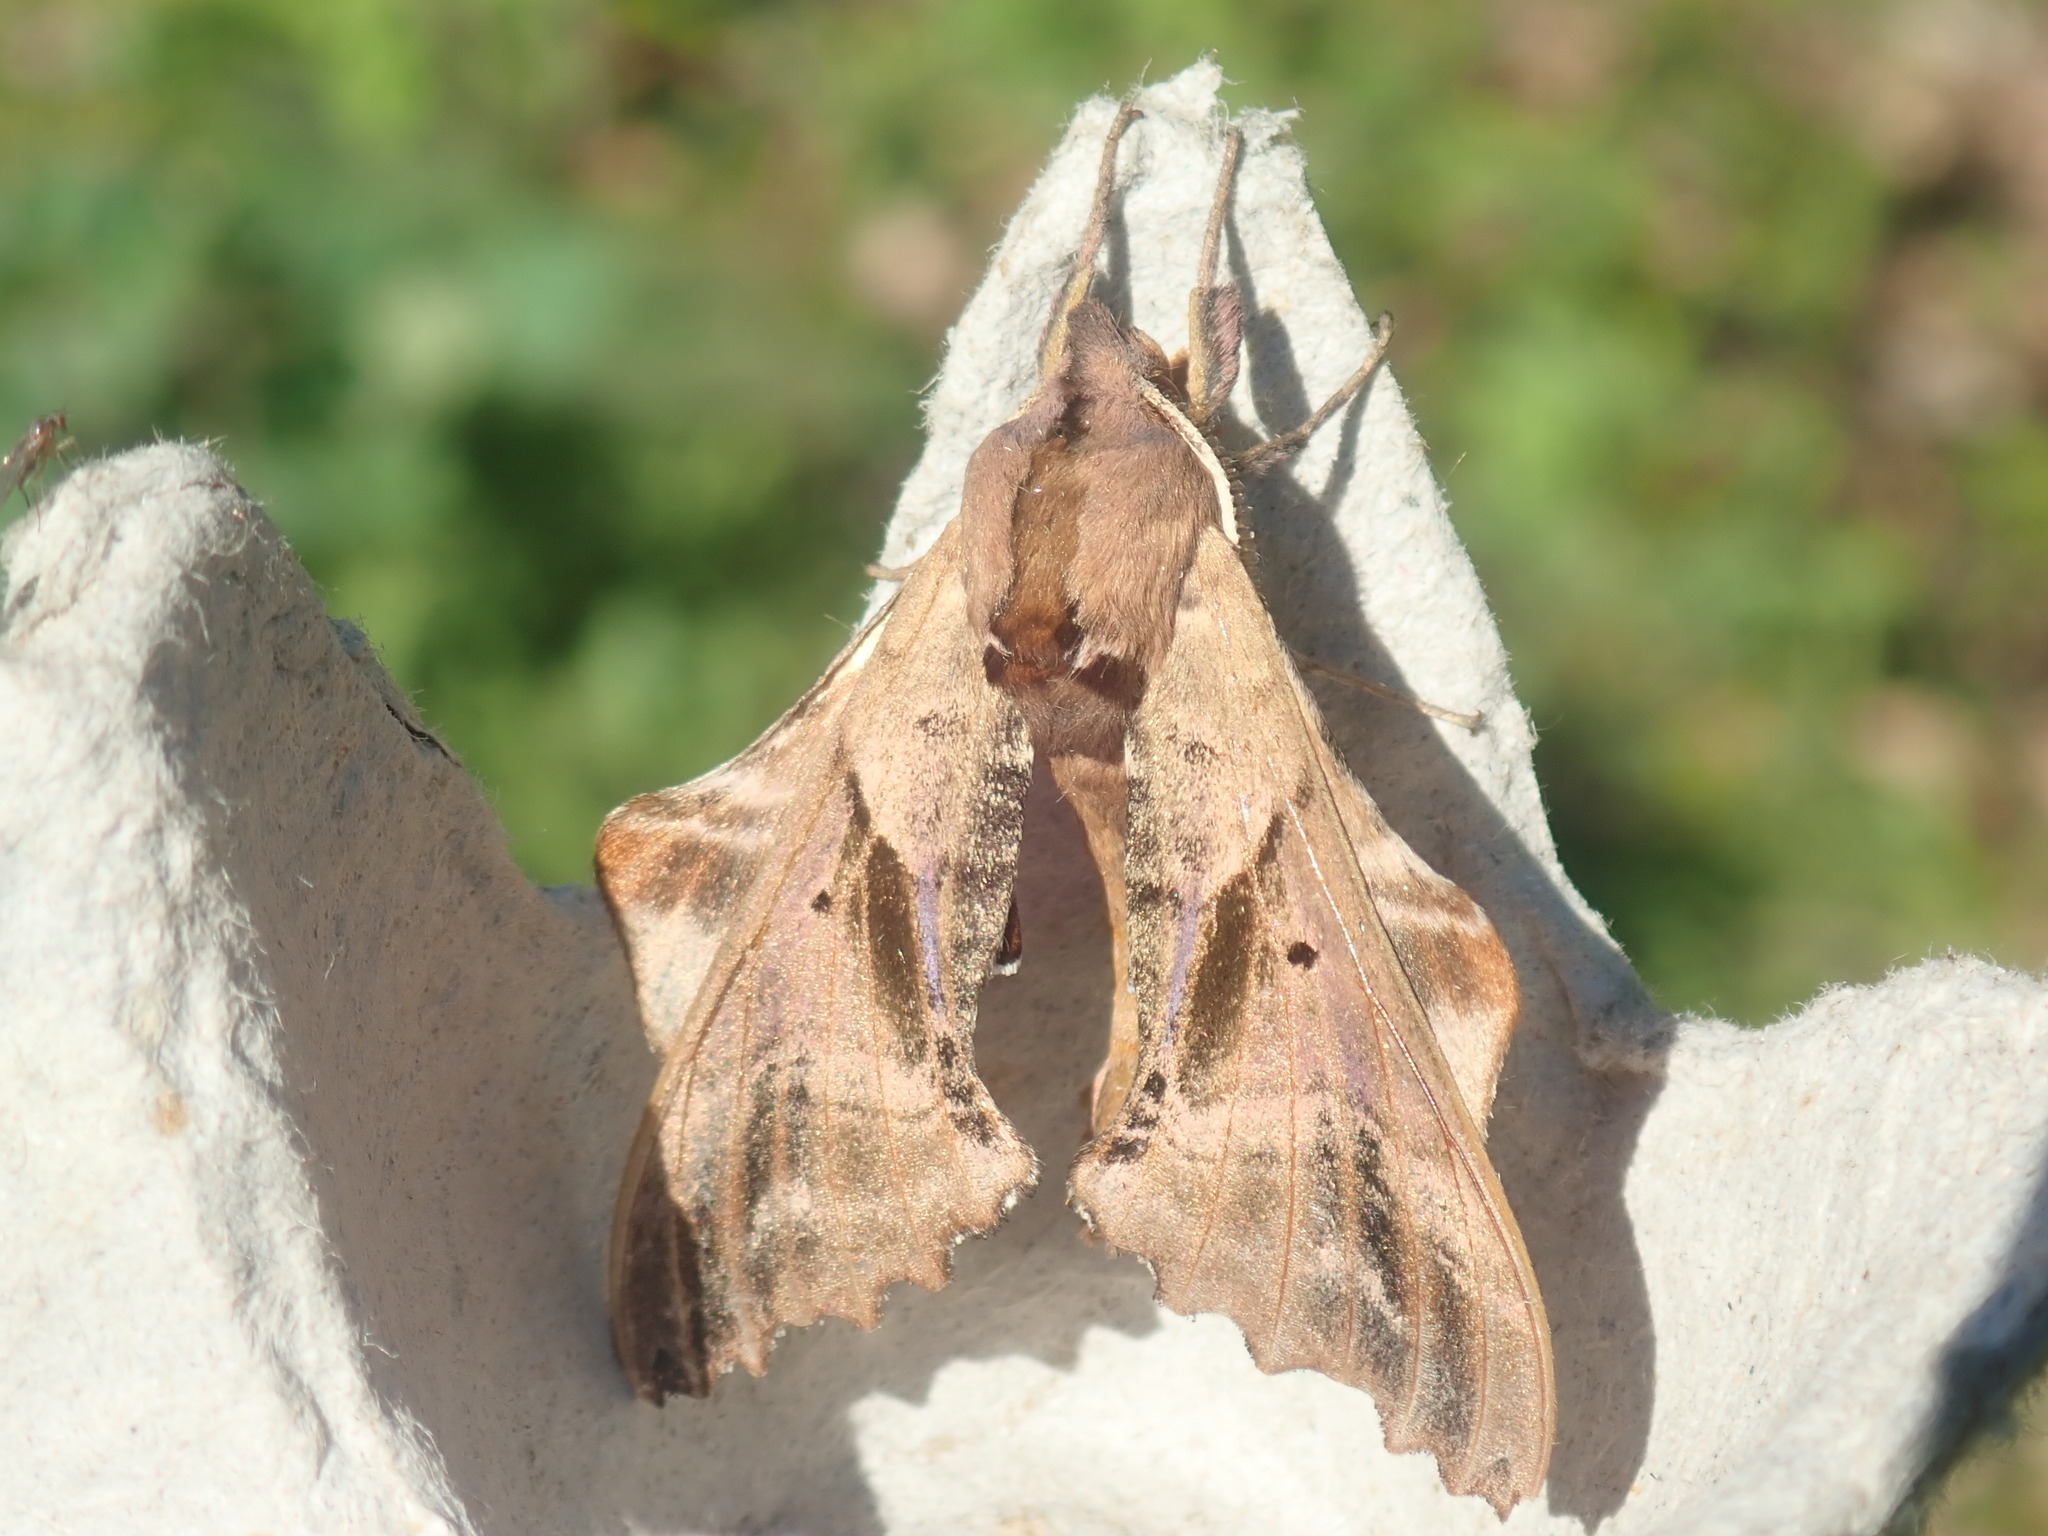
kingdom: Animalia
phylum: Arthropoda
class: Insecta
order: Lepidoptera
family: Sphingidae
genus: Paonias
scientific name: Paonias excaecata
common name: Blind-eyed sphinx
